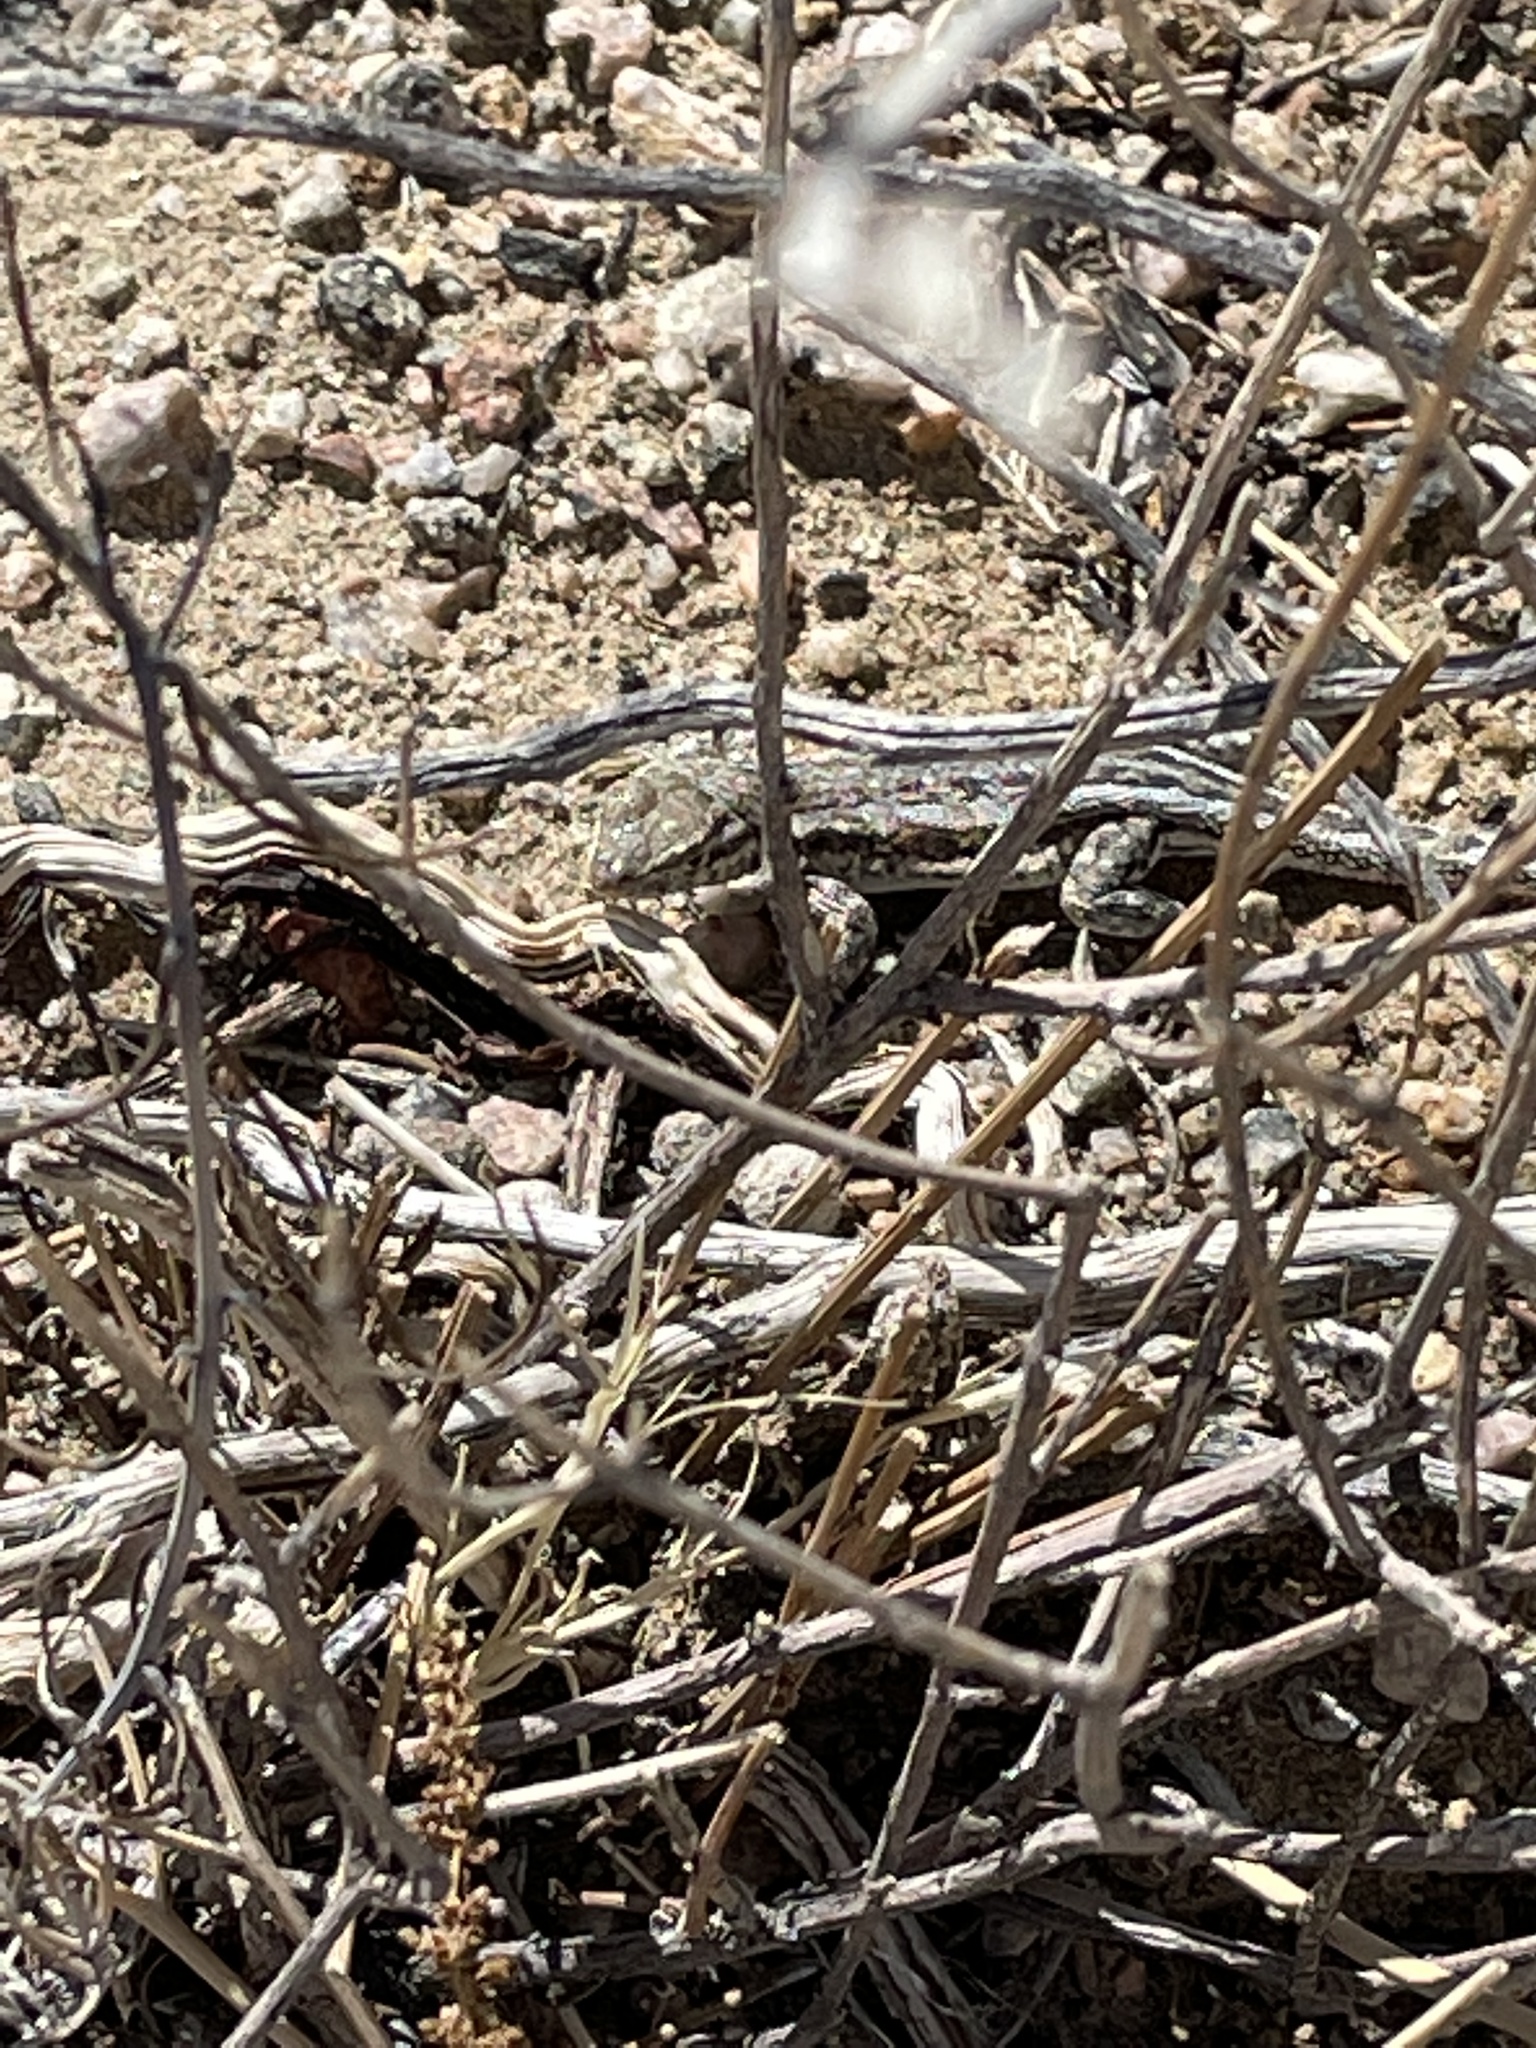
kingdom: Animalia
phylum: Chordata
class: Squamata
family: Phrynosomatidae
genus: Uta
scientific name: Uta stansburiana
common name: Side-blotched lizard
